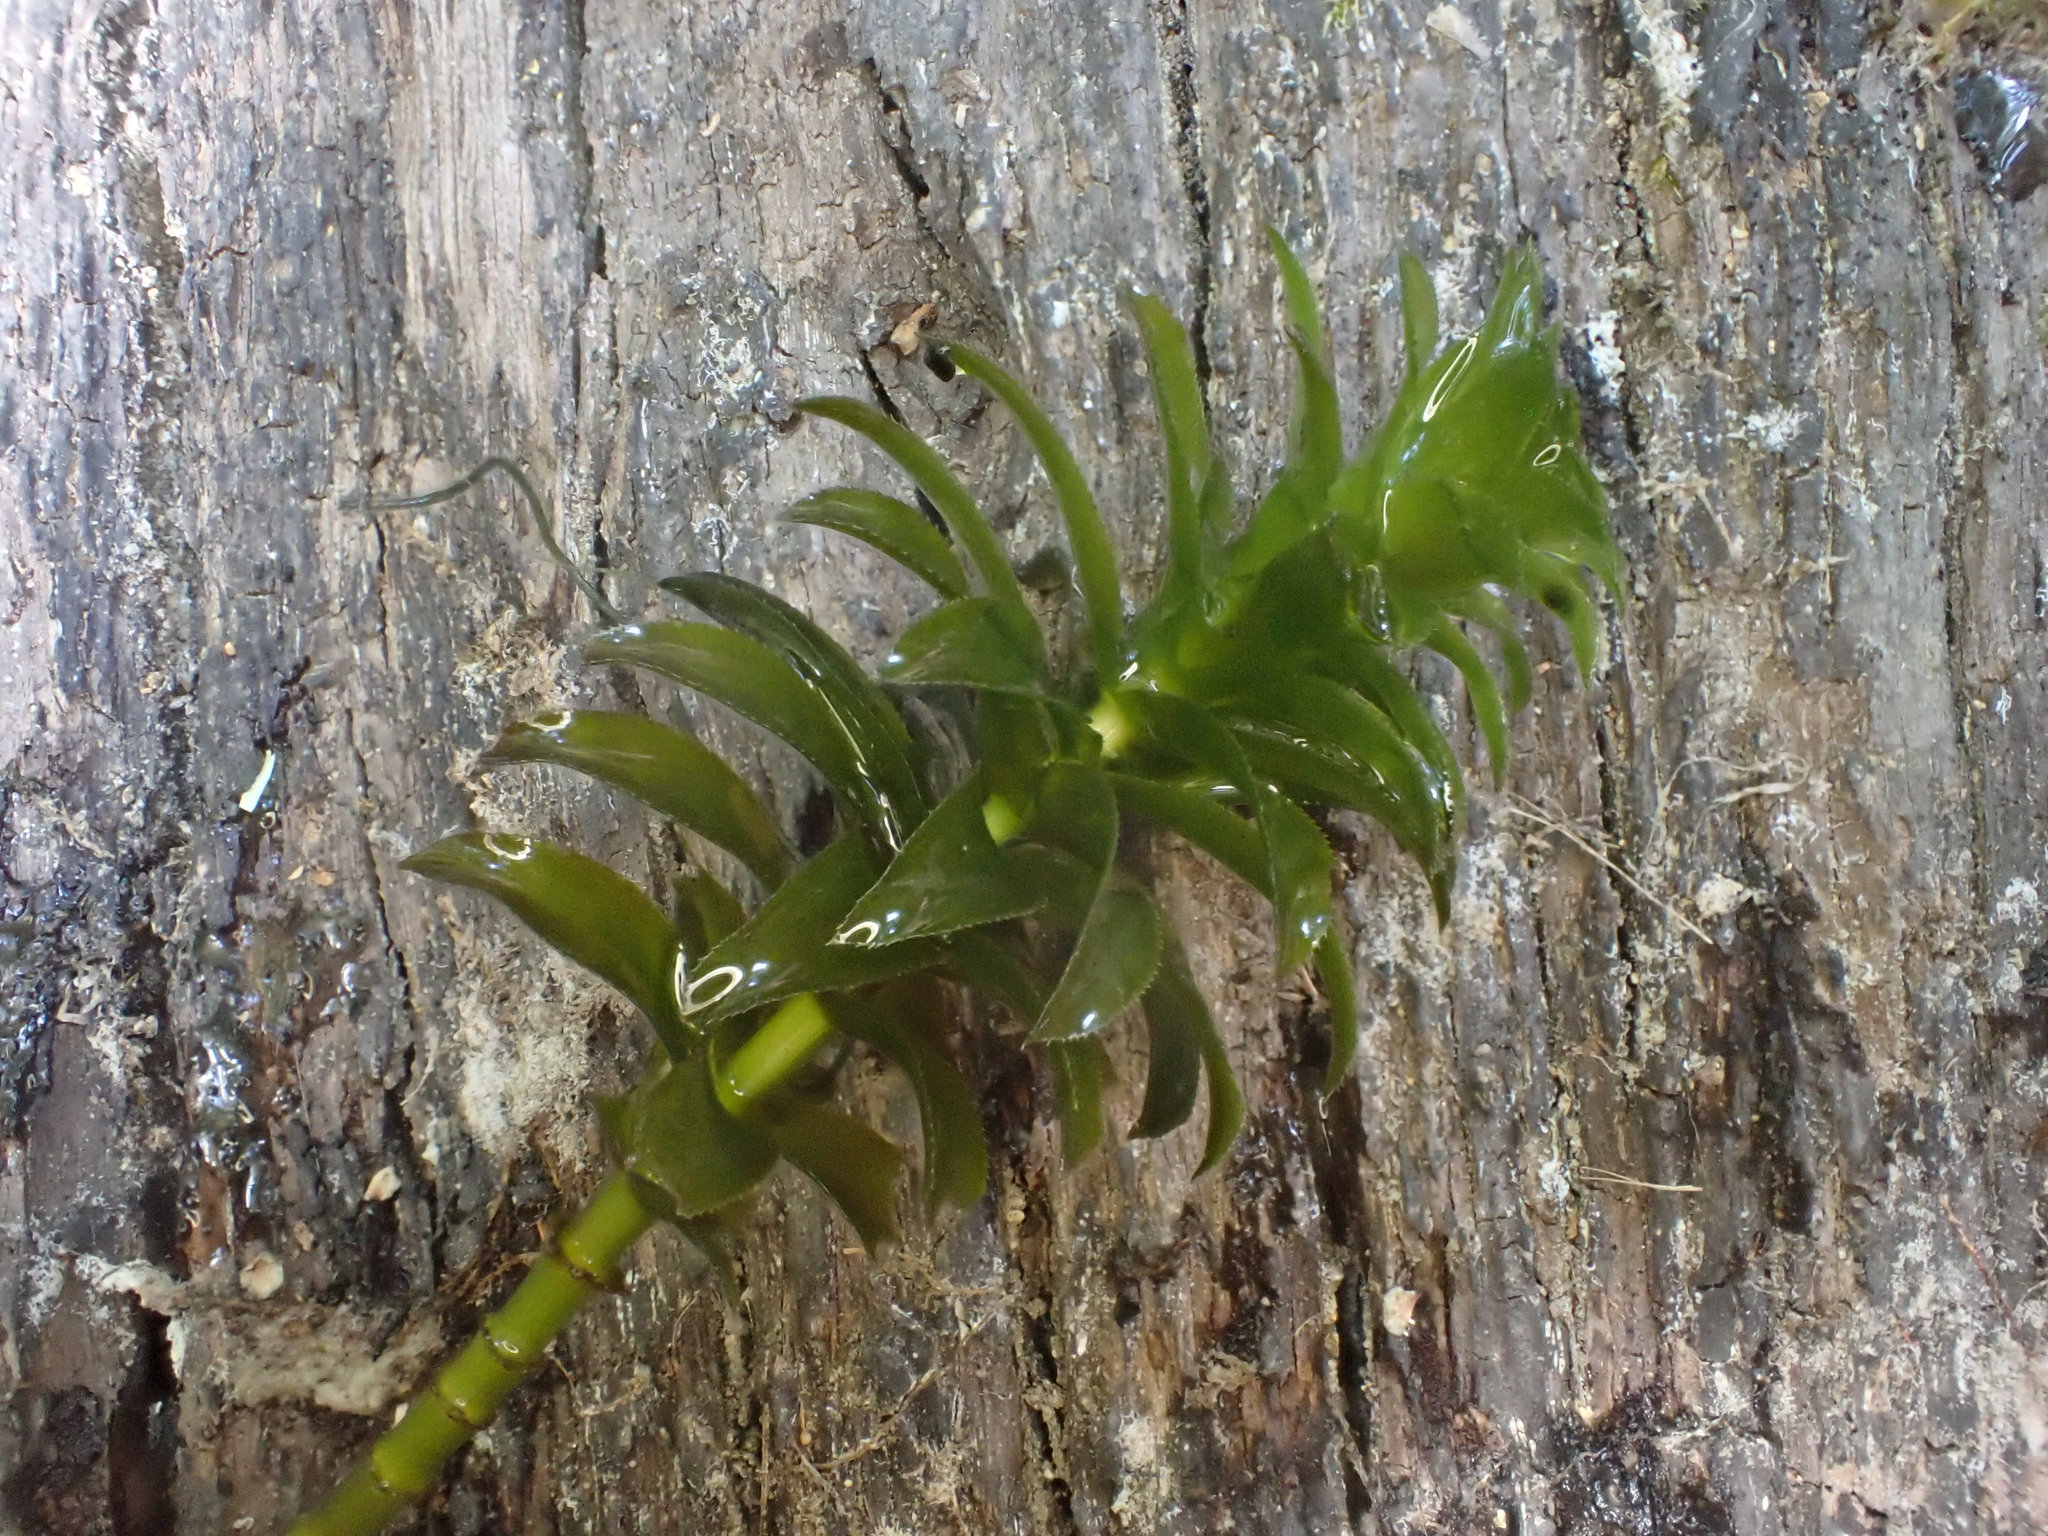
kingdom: Plantae
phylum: Tracheophyta
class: Liliopsida
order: Alismatales
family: Hydrocharitaceae
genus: Elodea
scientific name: Elodea canadensis
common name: Canadian waterweed
